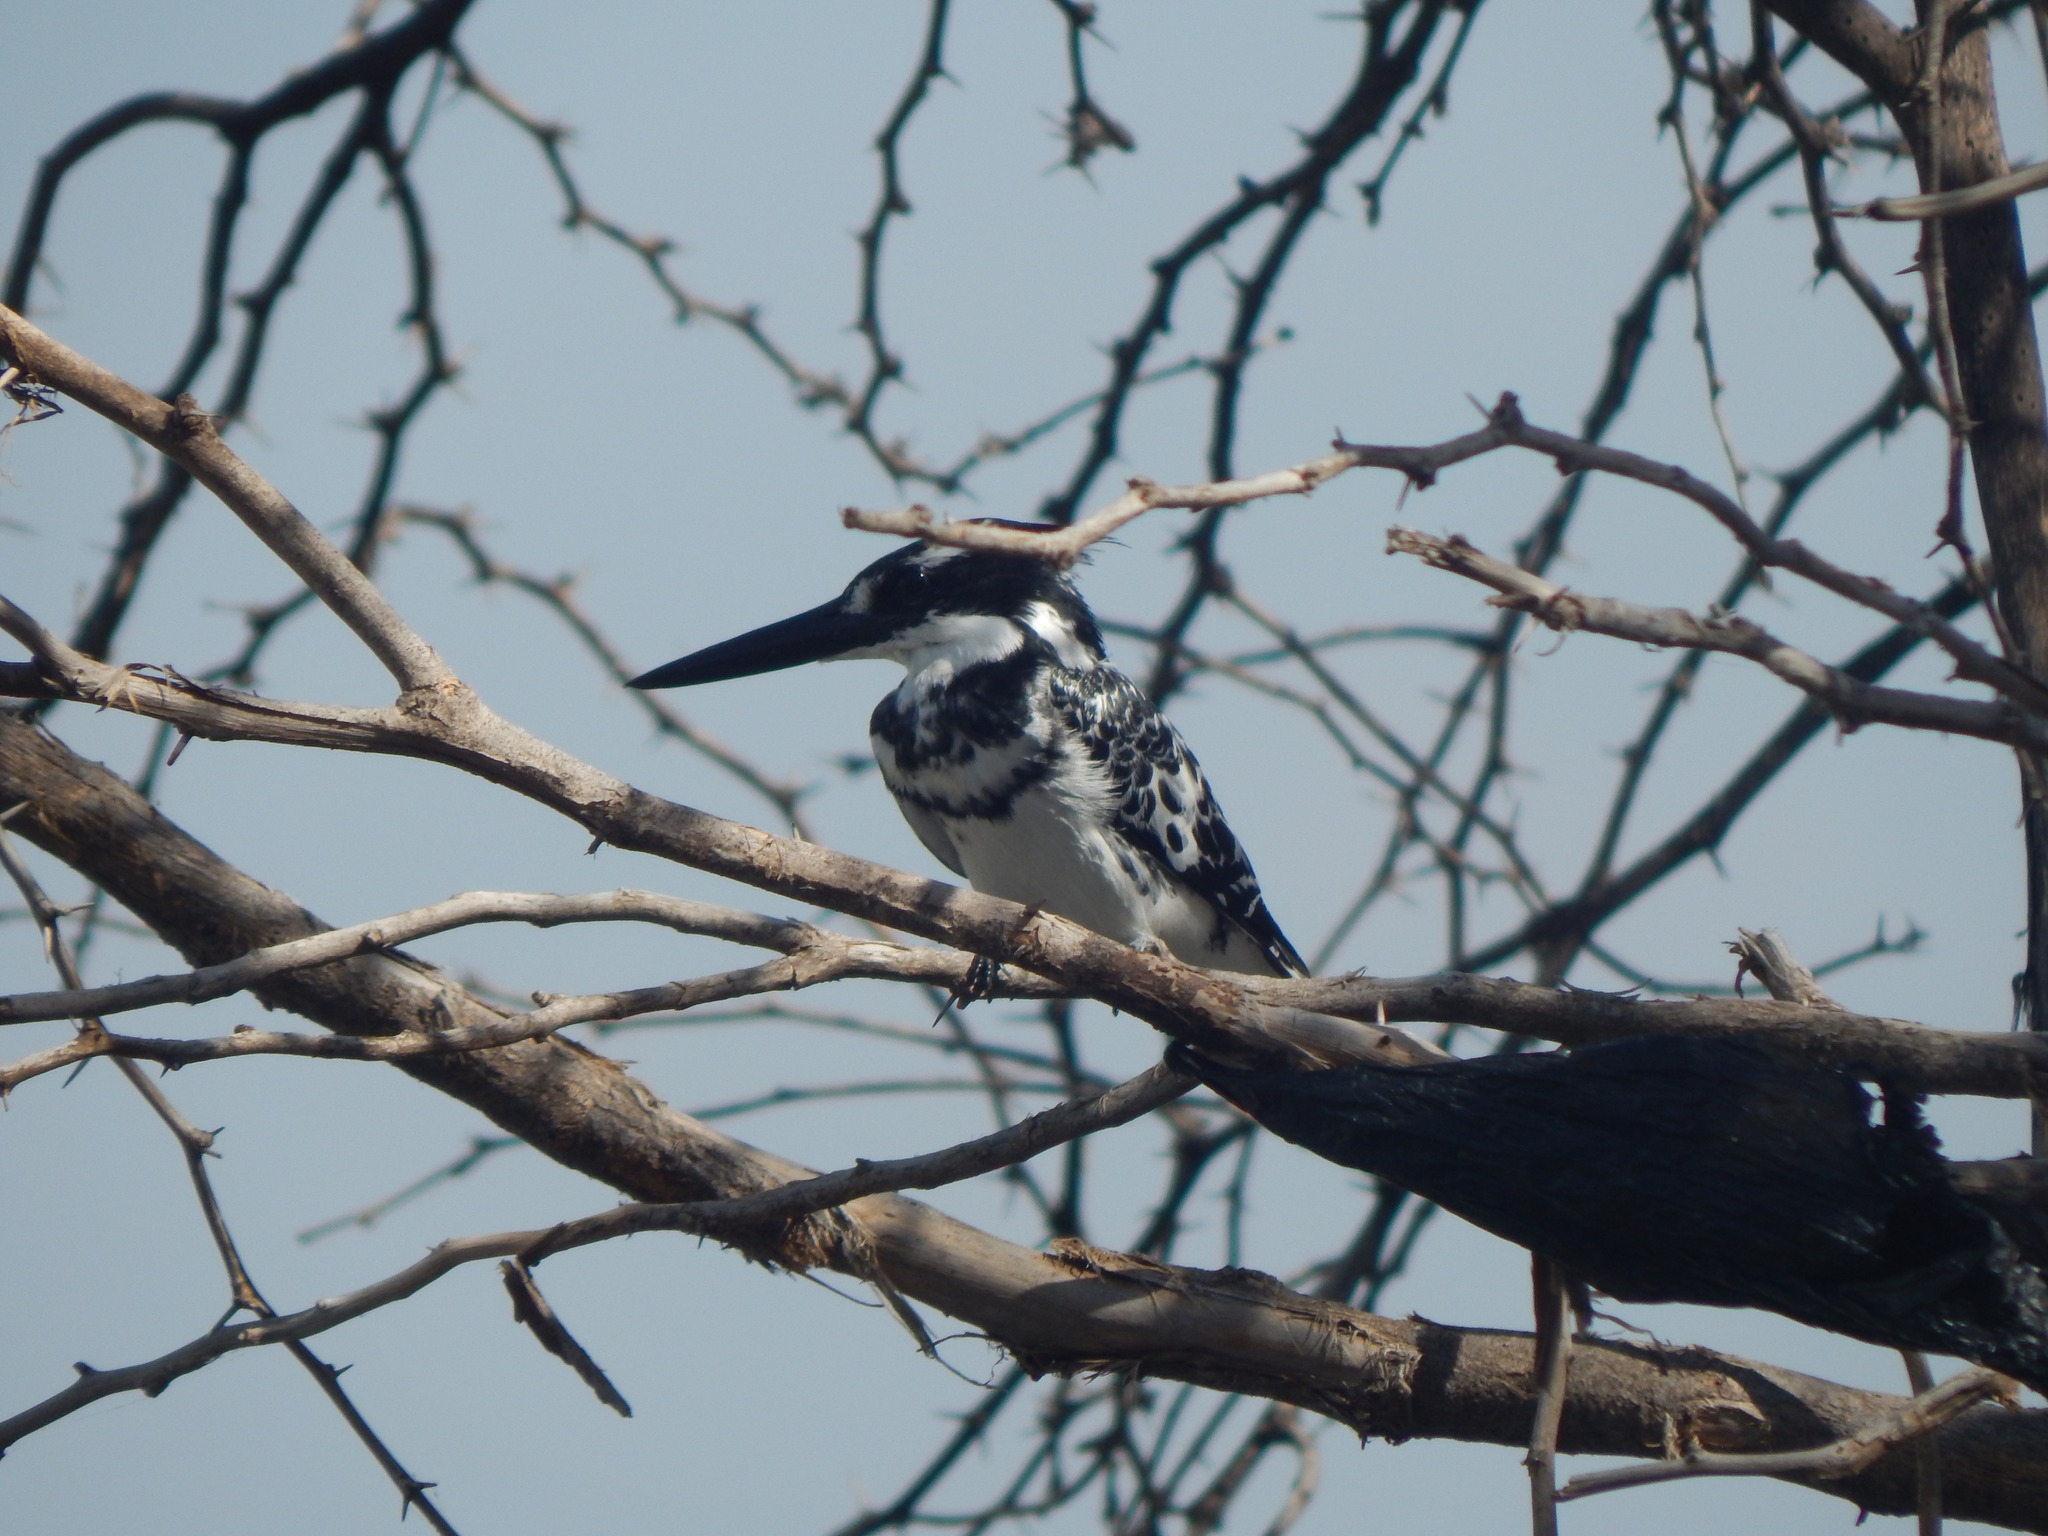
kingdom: Animalia
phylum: Chordata
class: Aves
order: Coraciiformes
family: Alcedinidae
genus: Ceryle
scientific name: Ceryle rudis
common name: Pied kingfisher
